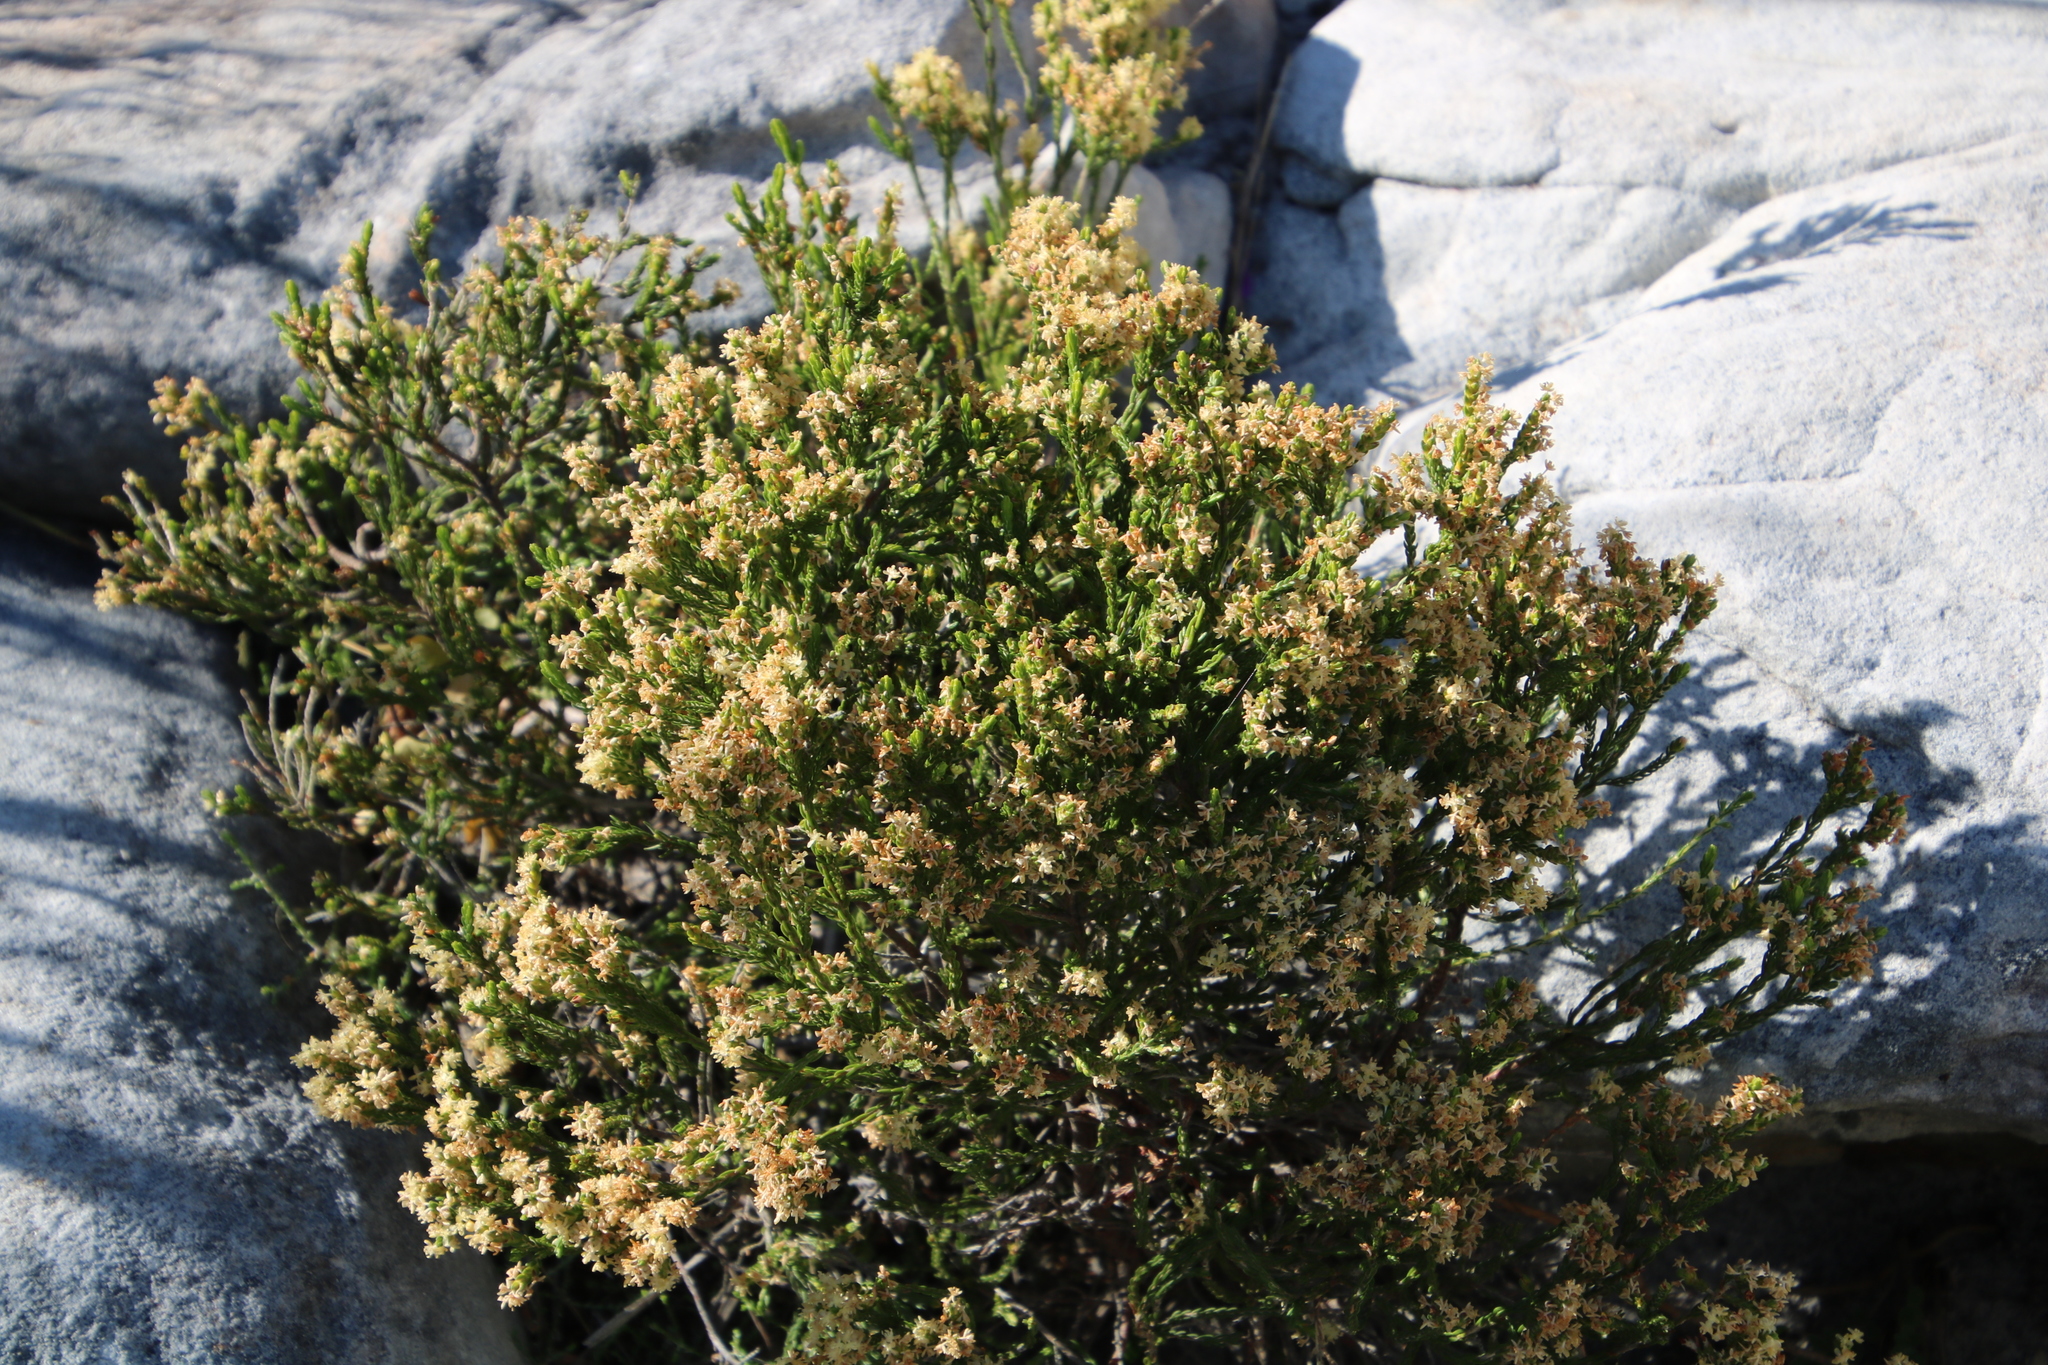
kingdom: Plantae
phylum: Tracheophyta
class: Magnoliopsida
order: Malvales
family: Thymelaeaceae
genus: Passerina
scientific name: Passerina corymbosa
